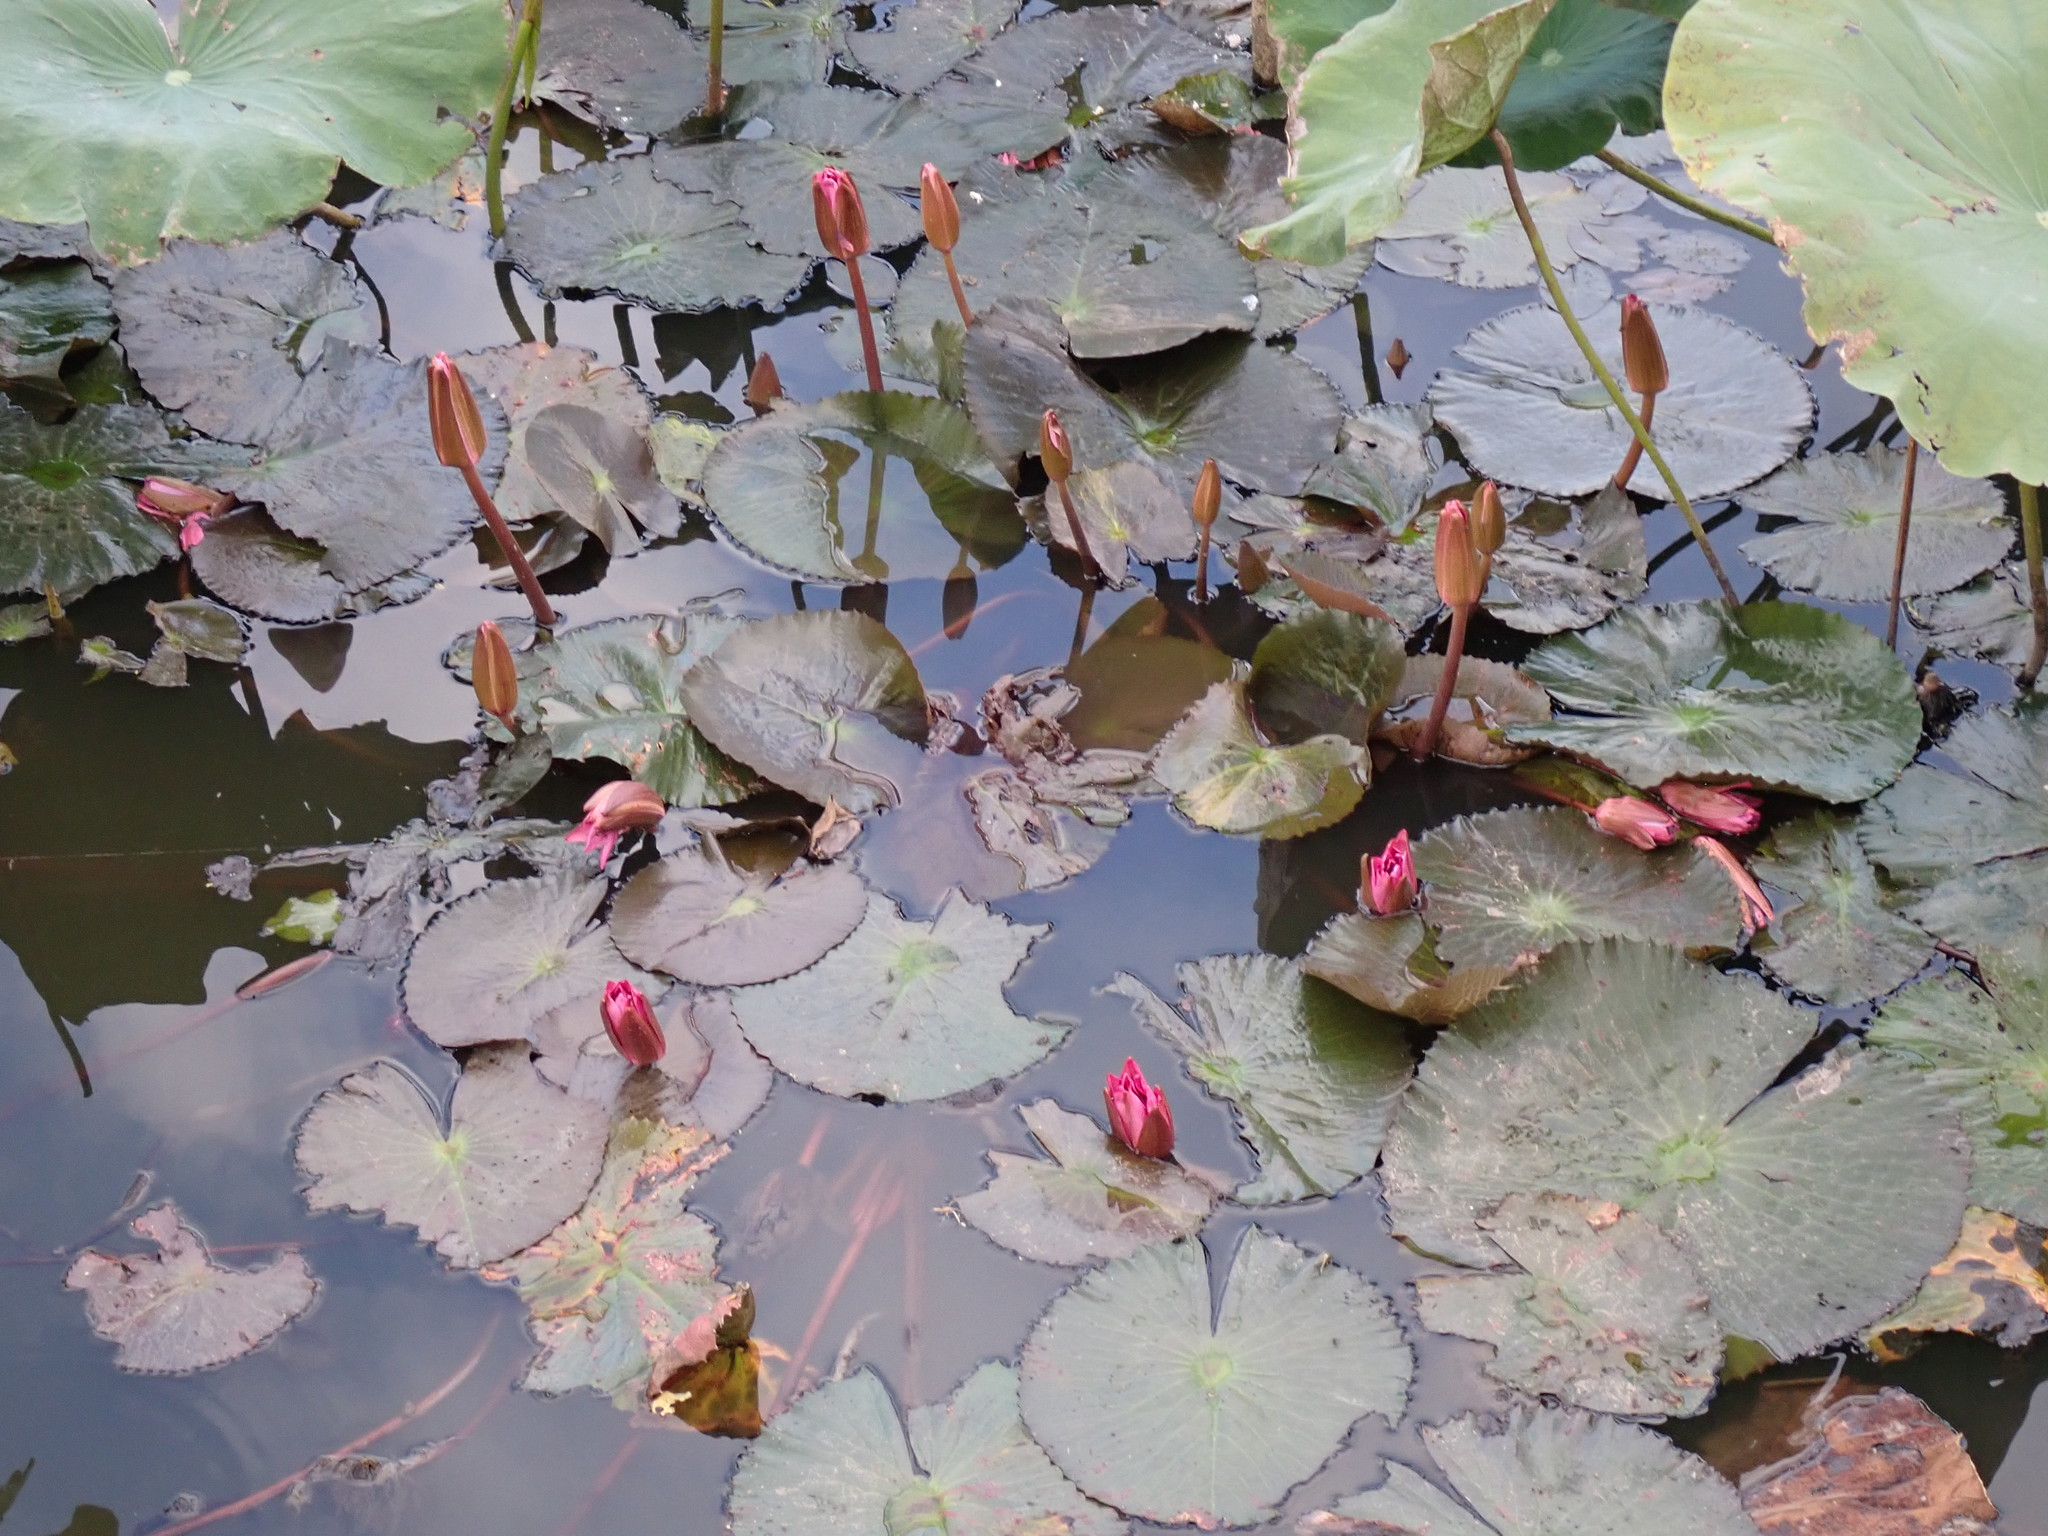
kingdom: Plantae
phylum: Tracheophyta
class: Magnoliopsida
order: Nymphaeales
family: Nymphaeaceae
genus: Nymphaea
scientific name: Nymphaea rubra
